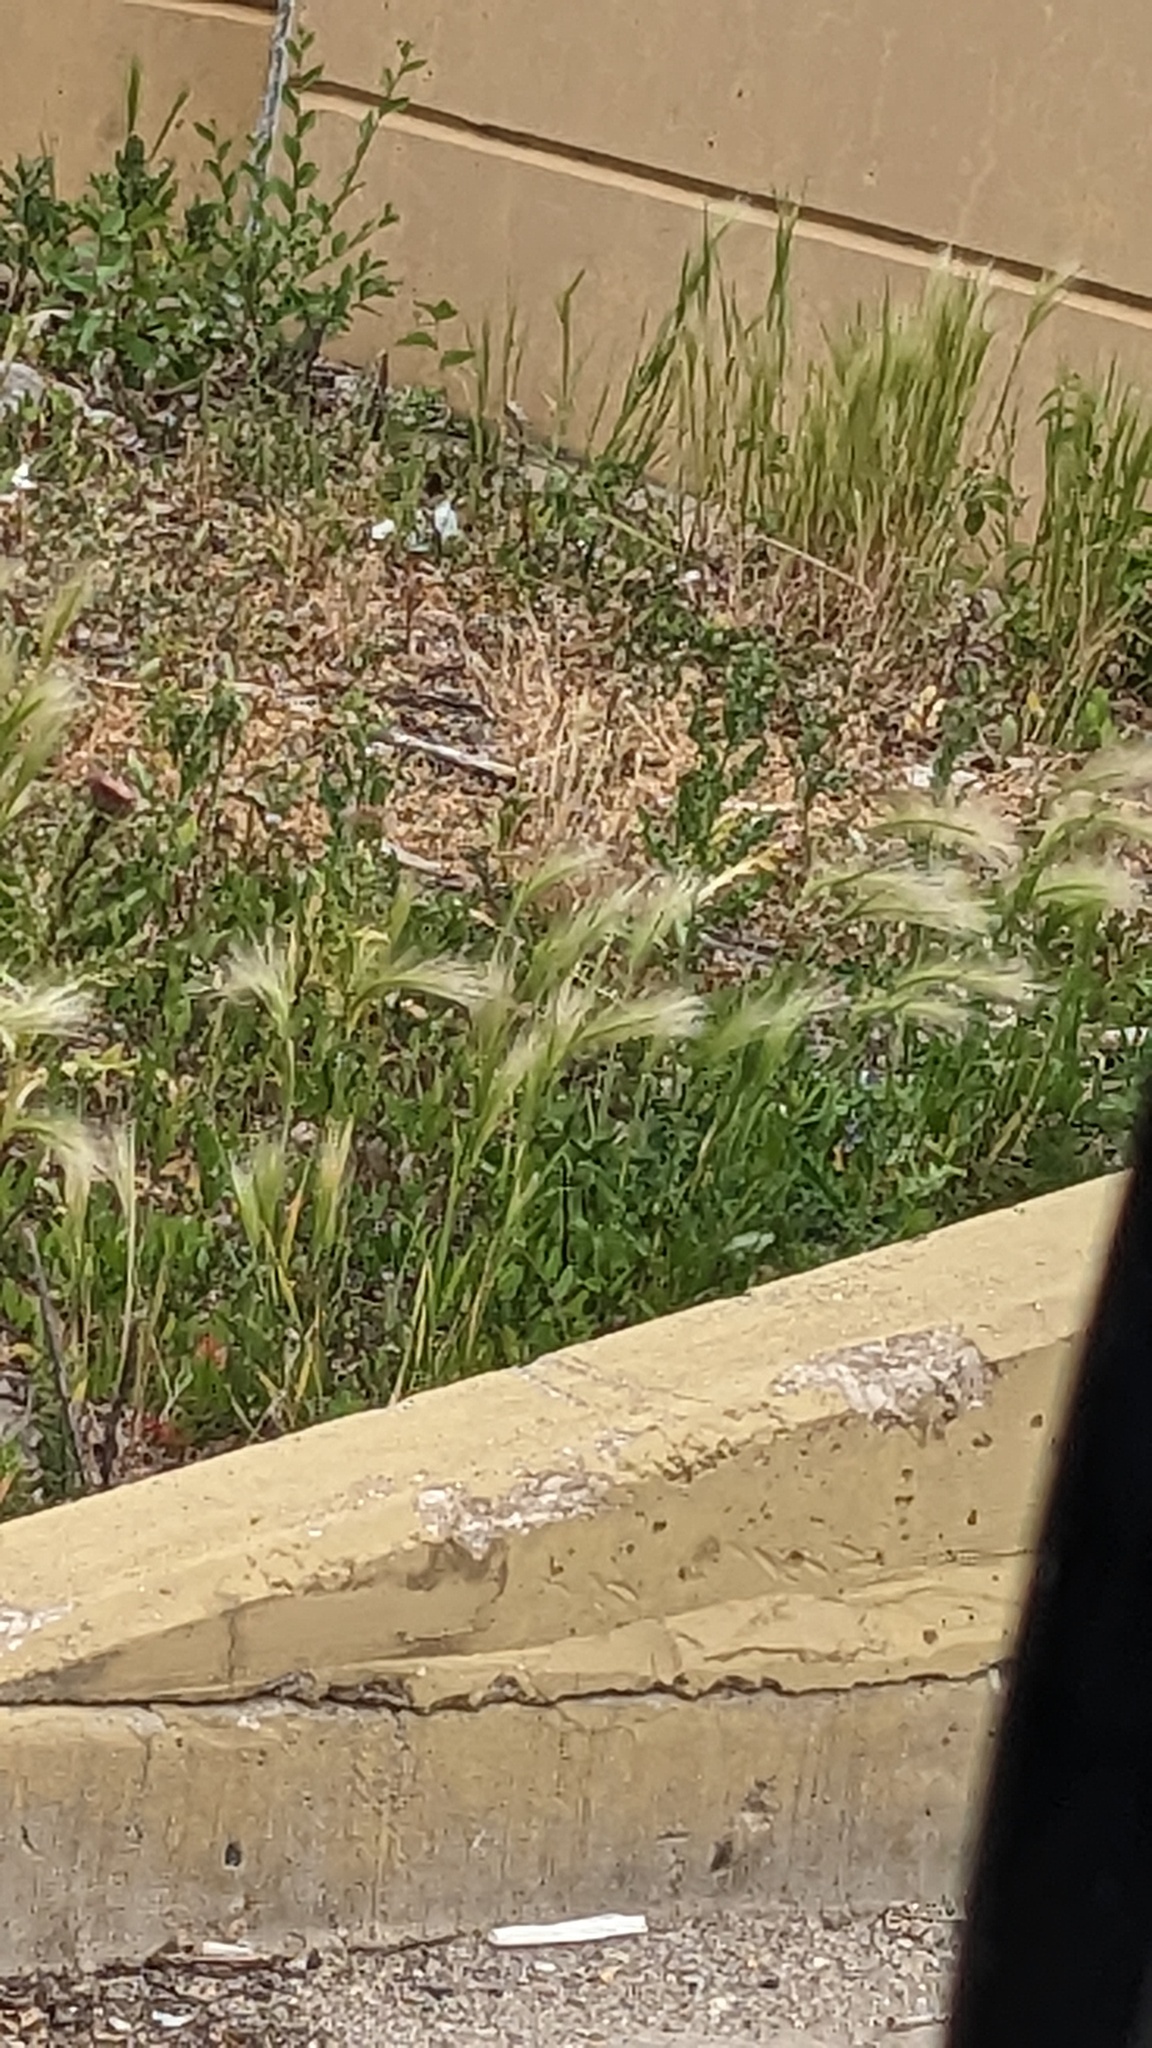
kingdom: Plantae
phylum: Tracheophyta
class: Liliopsida
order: Poales
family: Poaceae
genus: Hordeum
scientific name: Hordeum jubatum
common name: Foxtail barley
